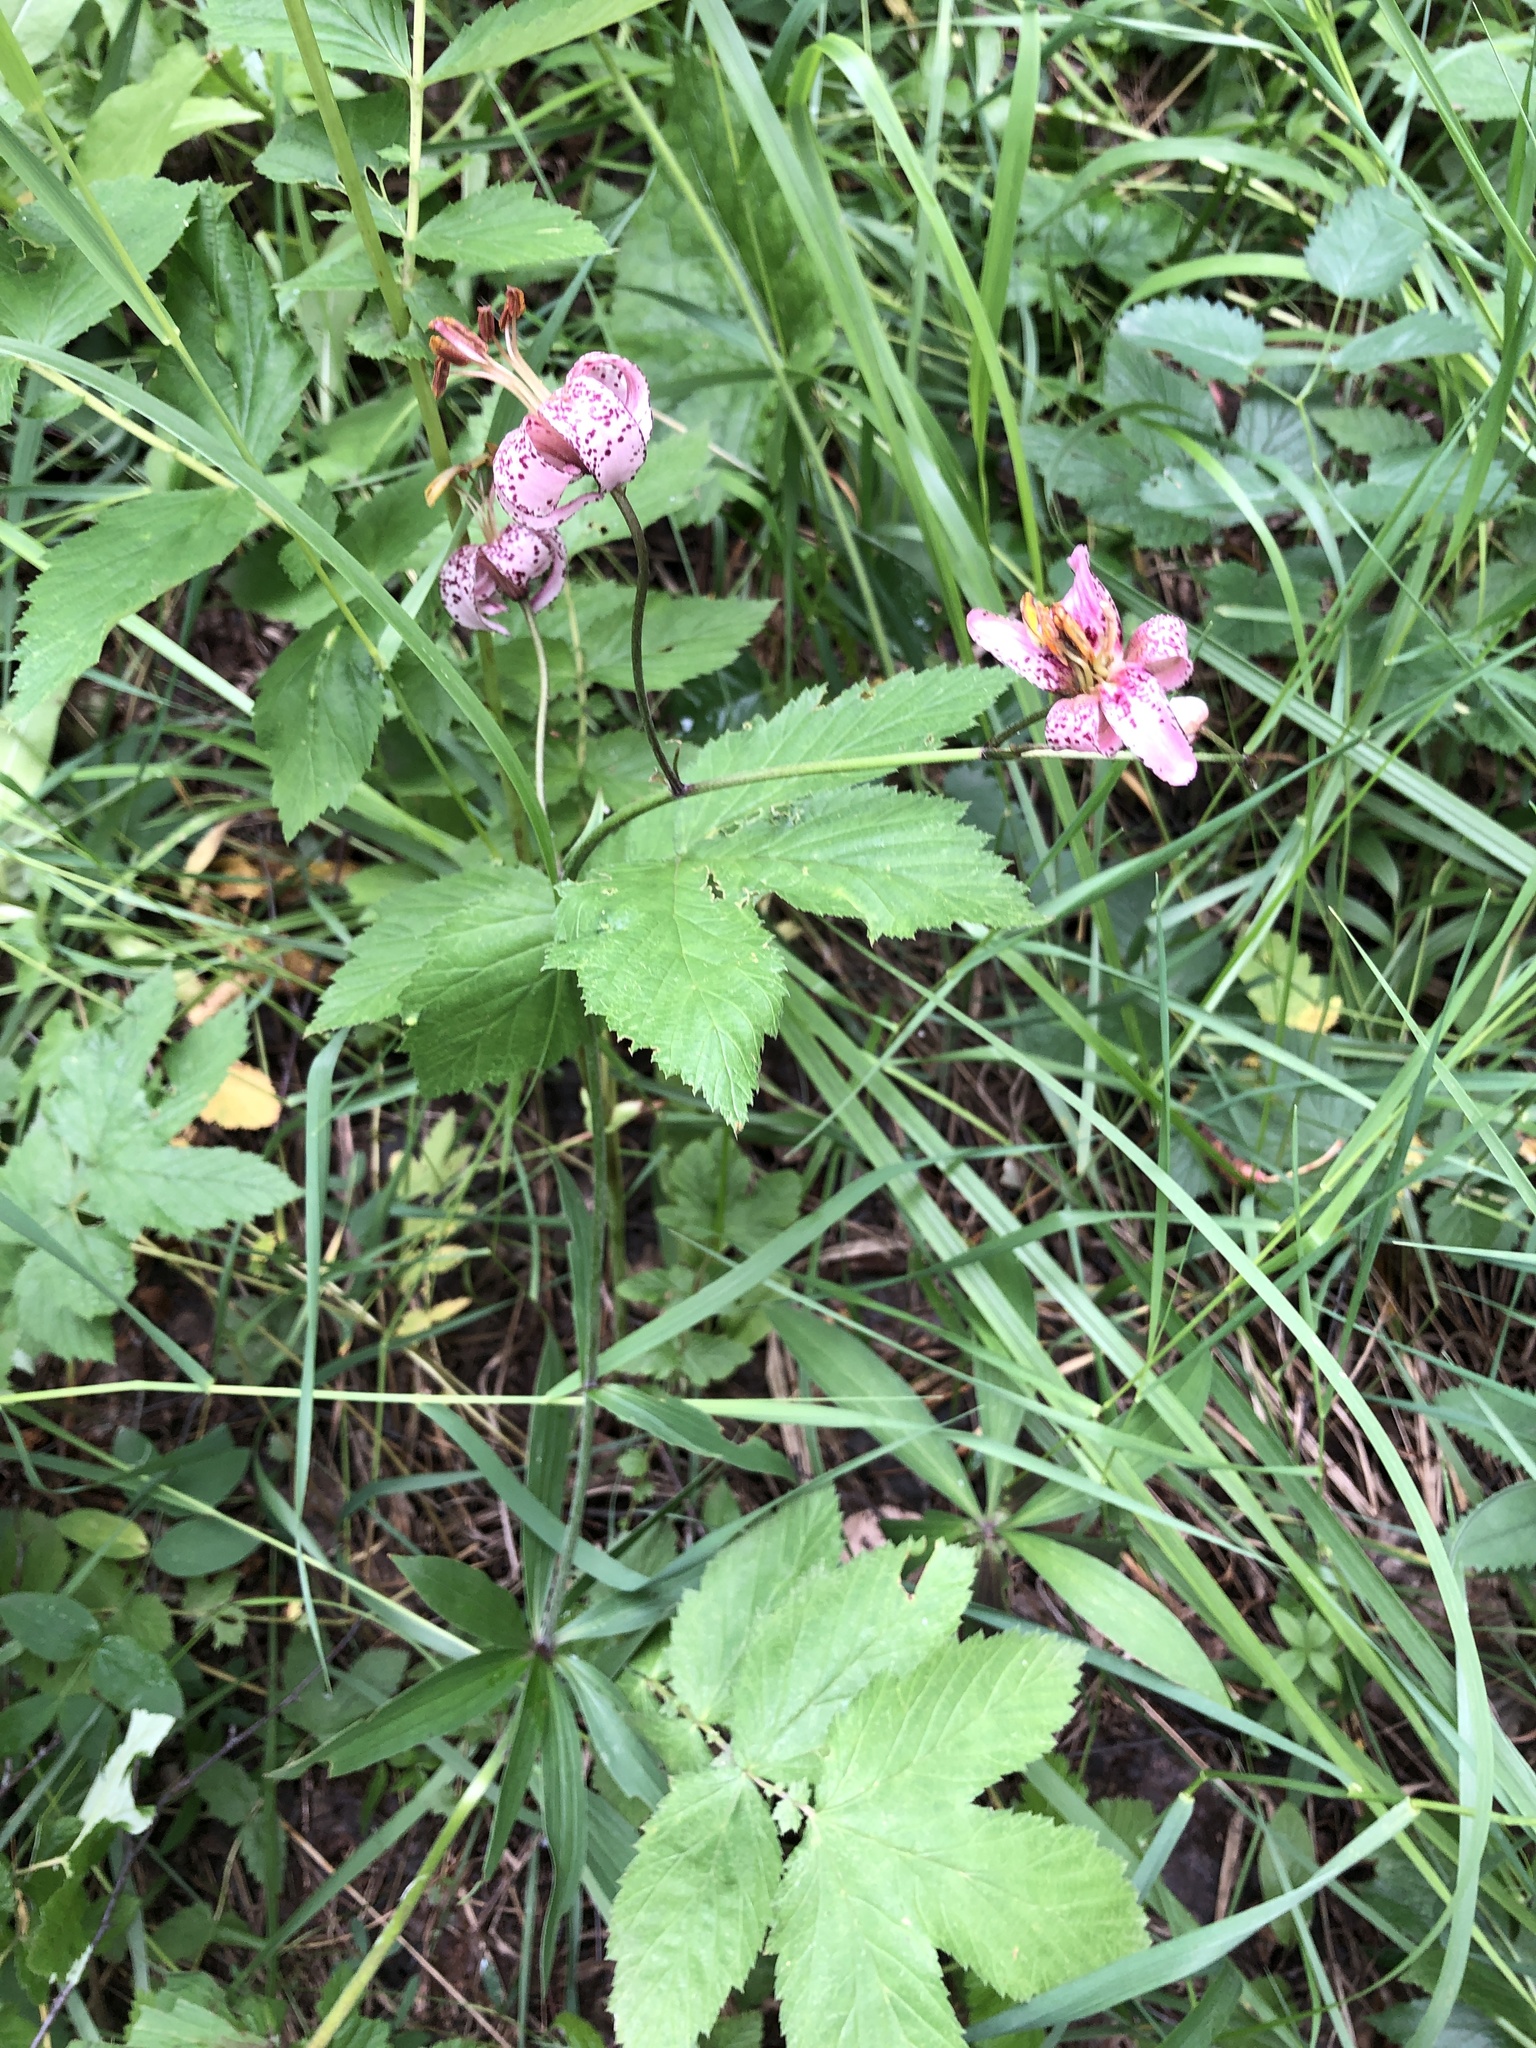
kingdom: Plantae
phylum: Tracheophyta
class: Liliopsida
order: Liliales
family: Liliaceae
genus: Lilium
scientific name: Lilium martagon
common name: Martagon lily
